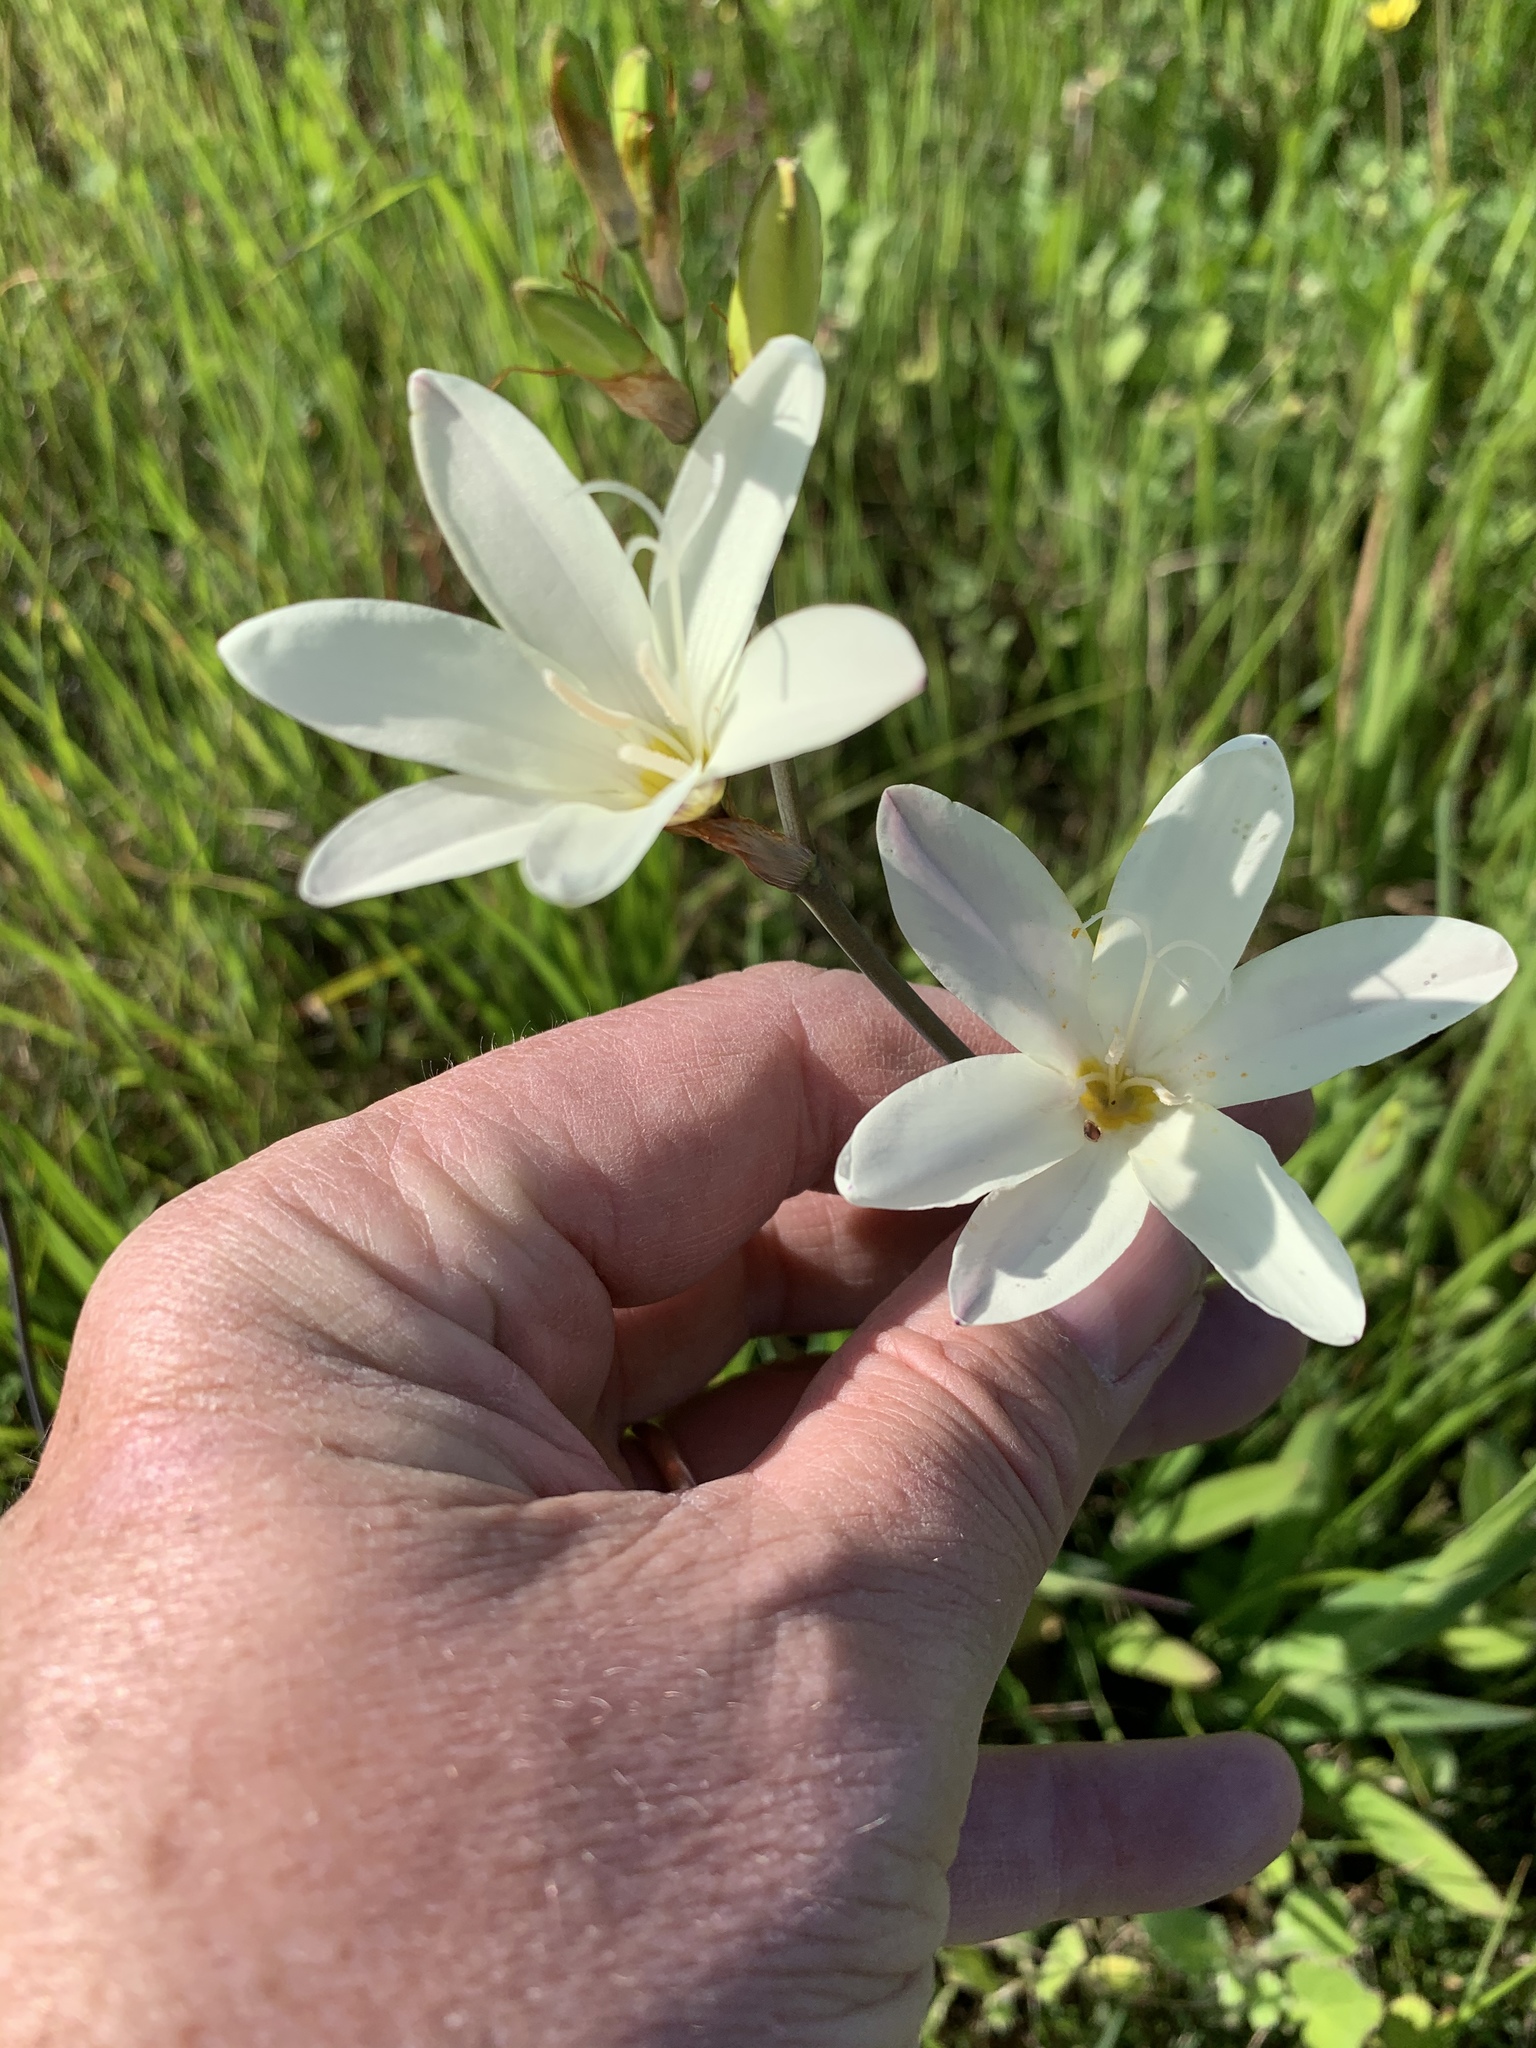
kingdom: Plantae
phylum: Tracheophyta
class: Liliopsida
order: Asparagales
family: Iridaceae
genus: Sparaxis
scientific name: Sparaxis bulbifera
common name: Harlequin-flower
